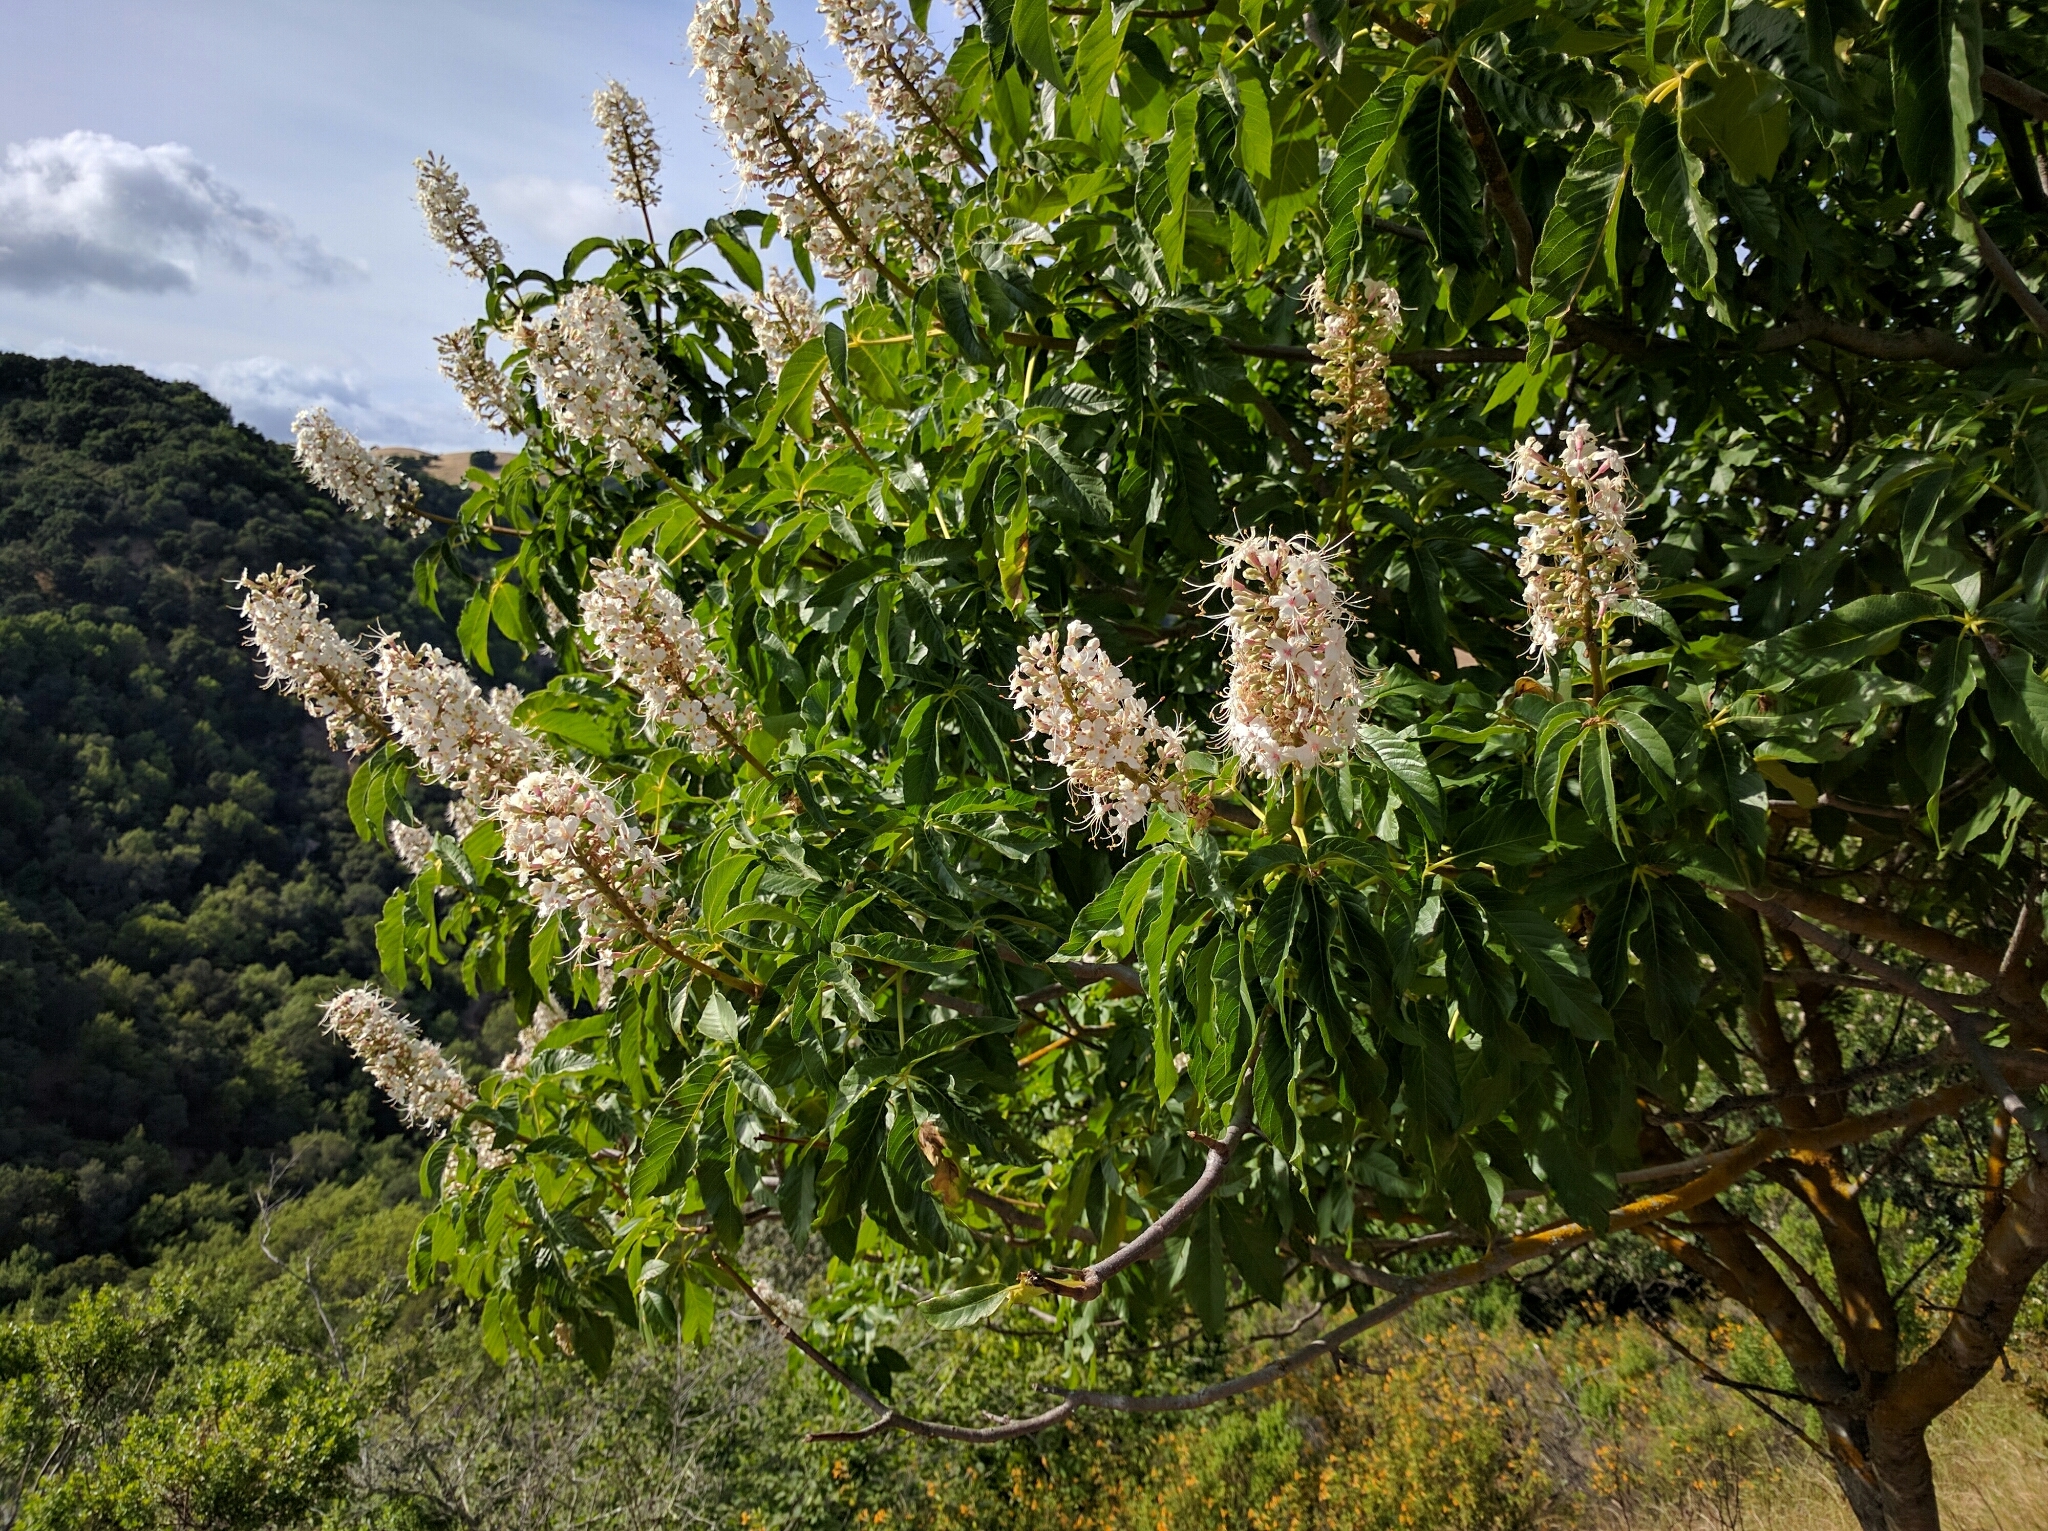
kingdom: Plantae
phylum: Tracheophyta
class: Magnoliopsida
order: Sapindales
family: Sapindaceae
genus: Aesculus
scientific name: Aesculus californica
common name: California buckeye
